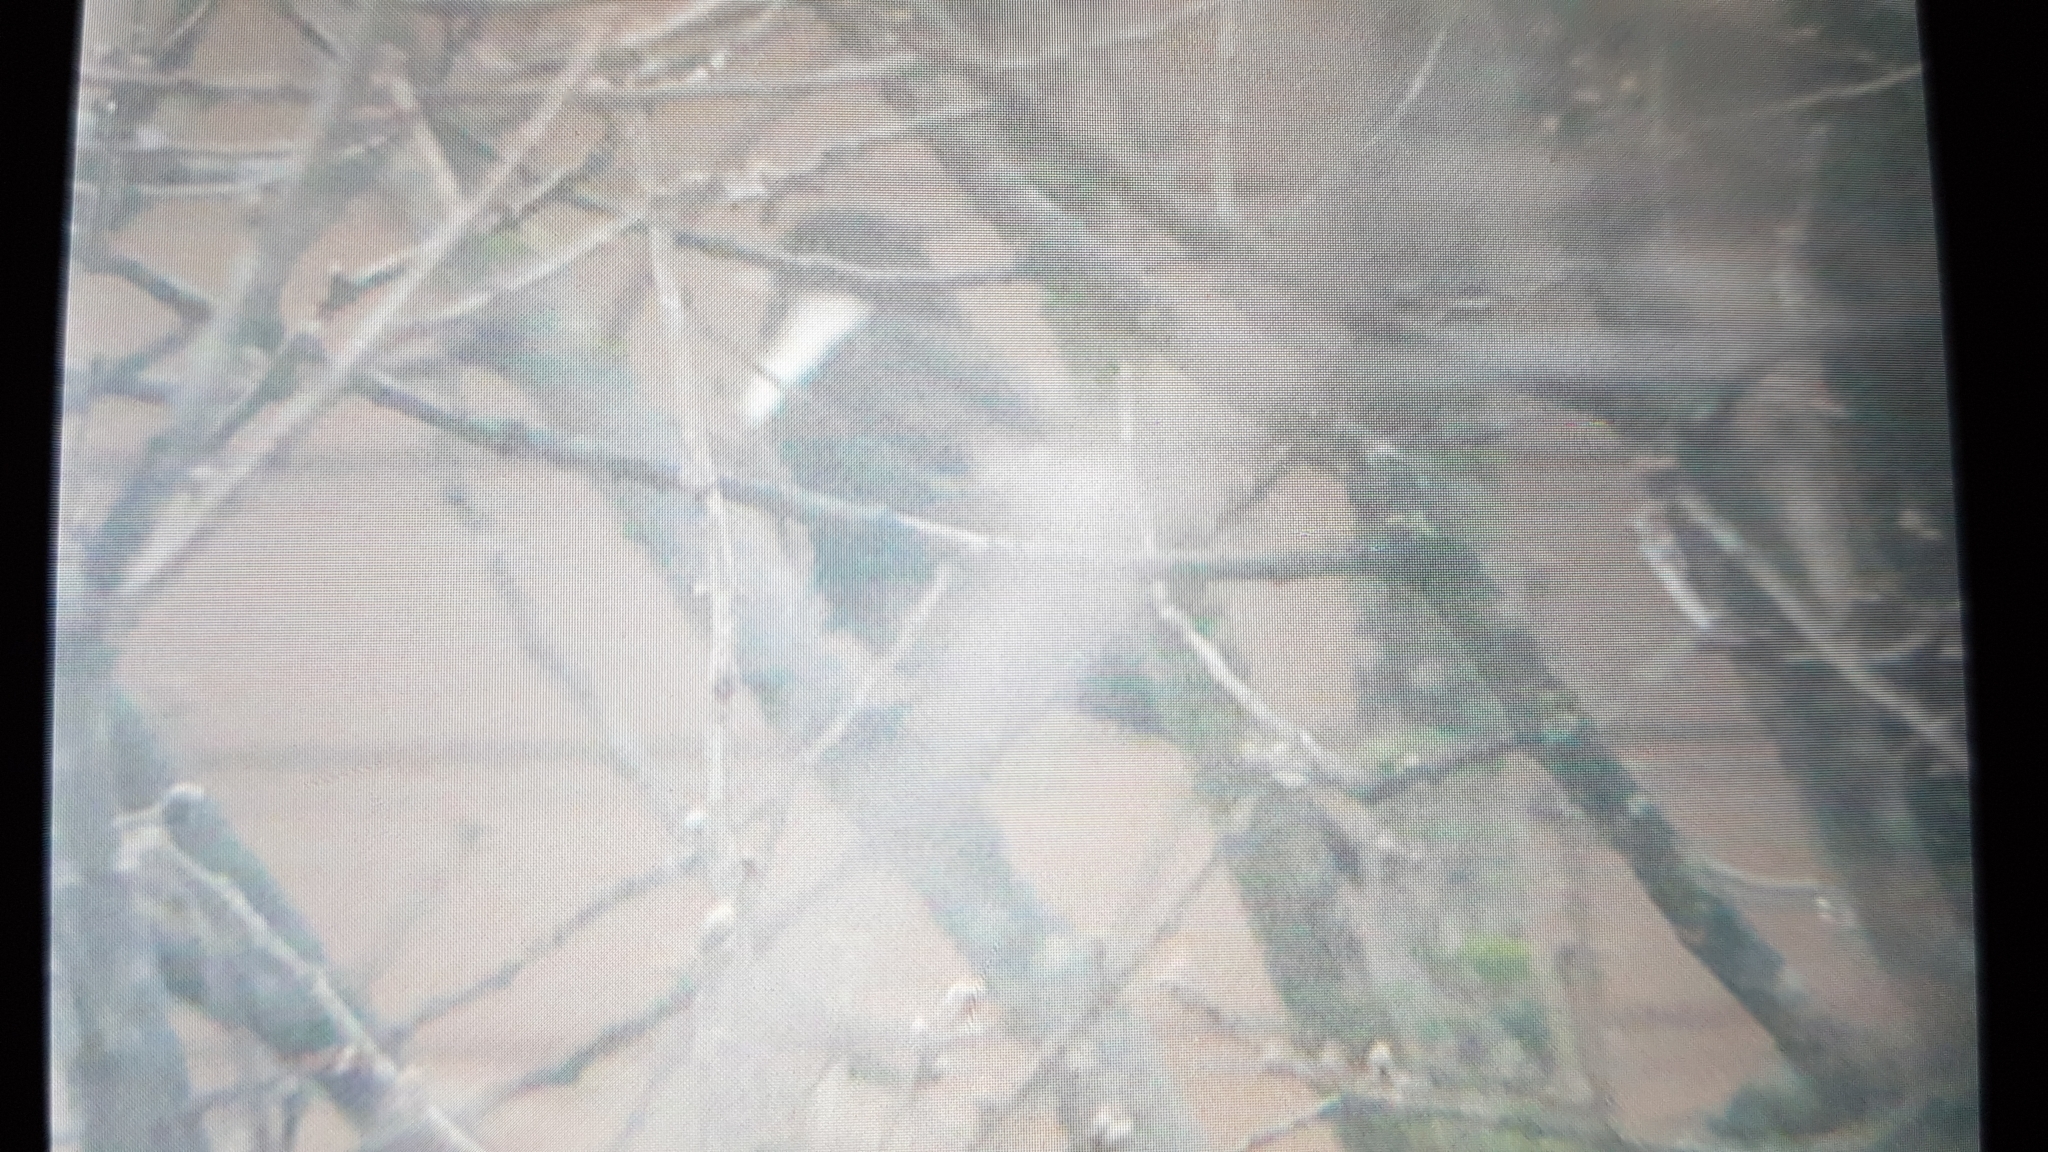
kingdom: Animalia
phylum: Chordata
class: Aves
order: Passeriformes
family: Turdidae
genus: Turdus
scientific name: Turdus torquatus
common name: Ring ouzel
